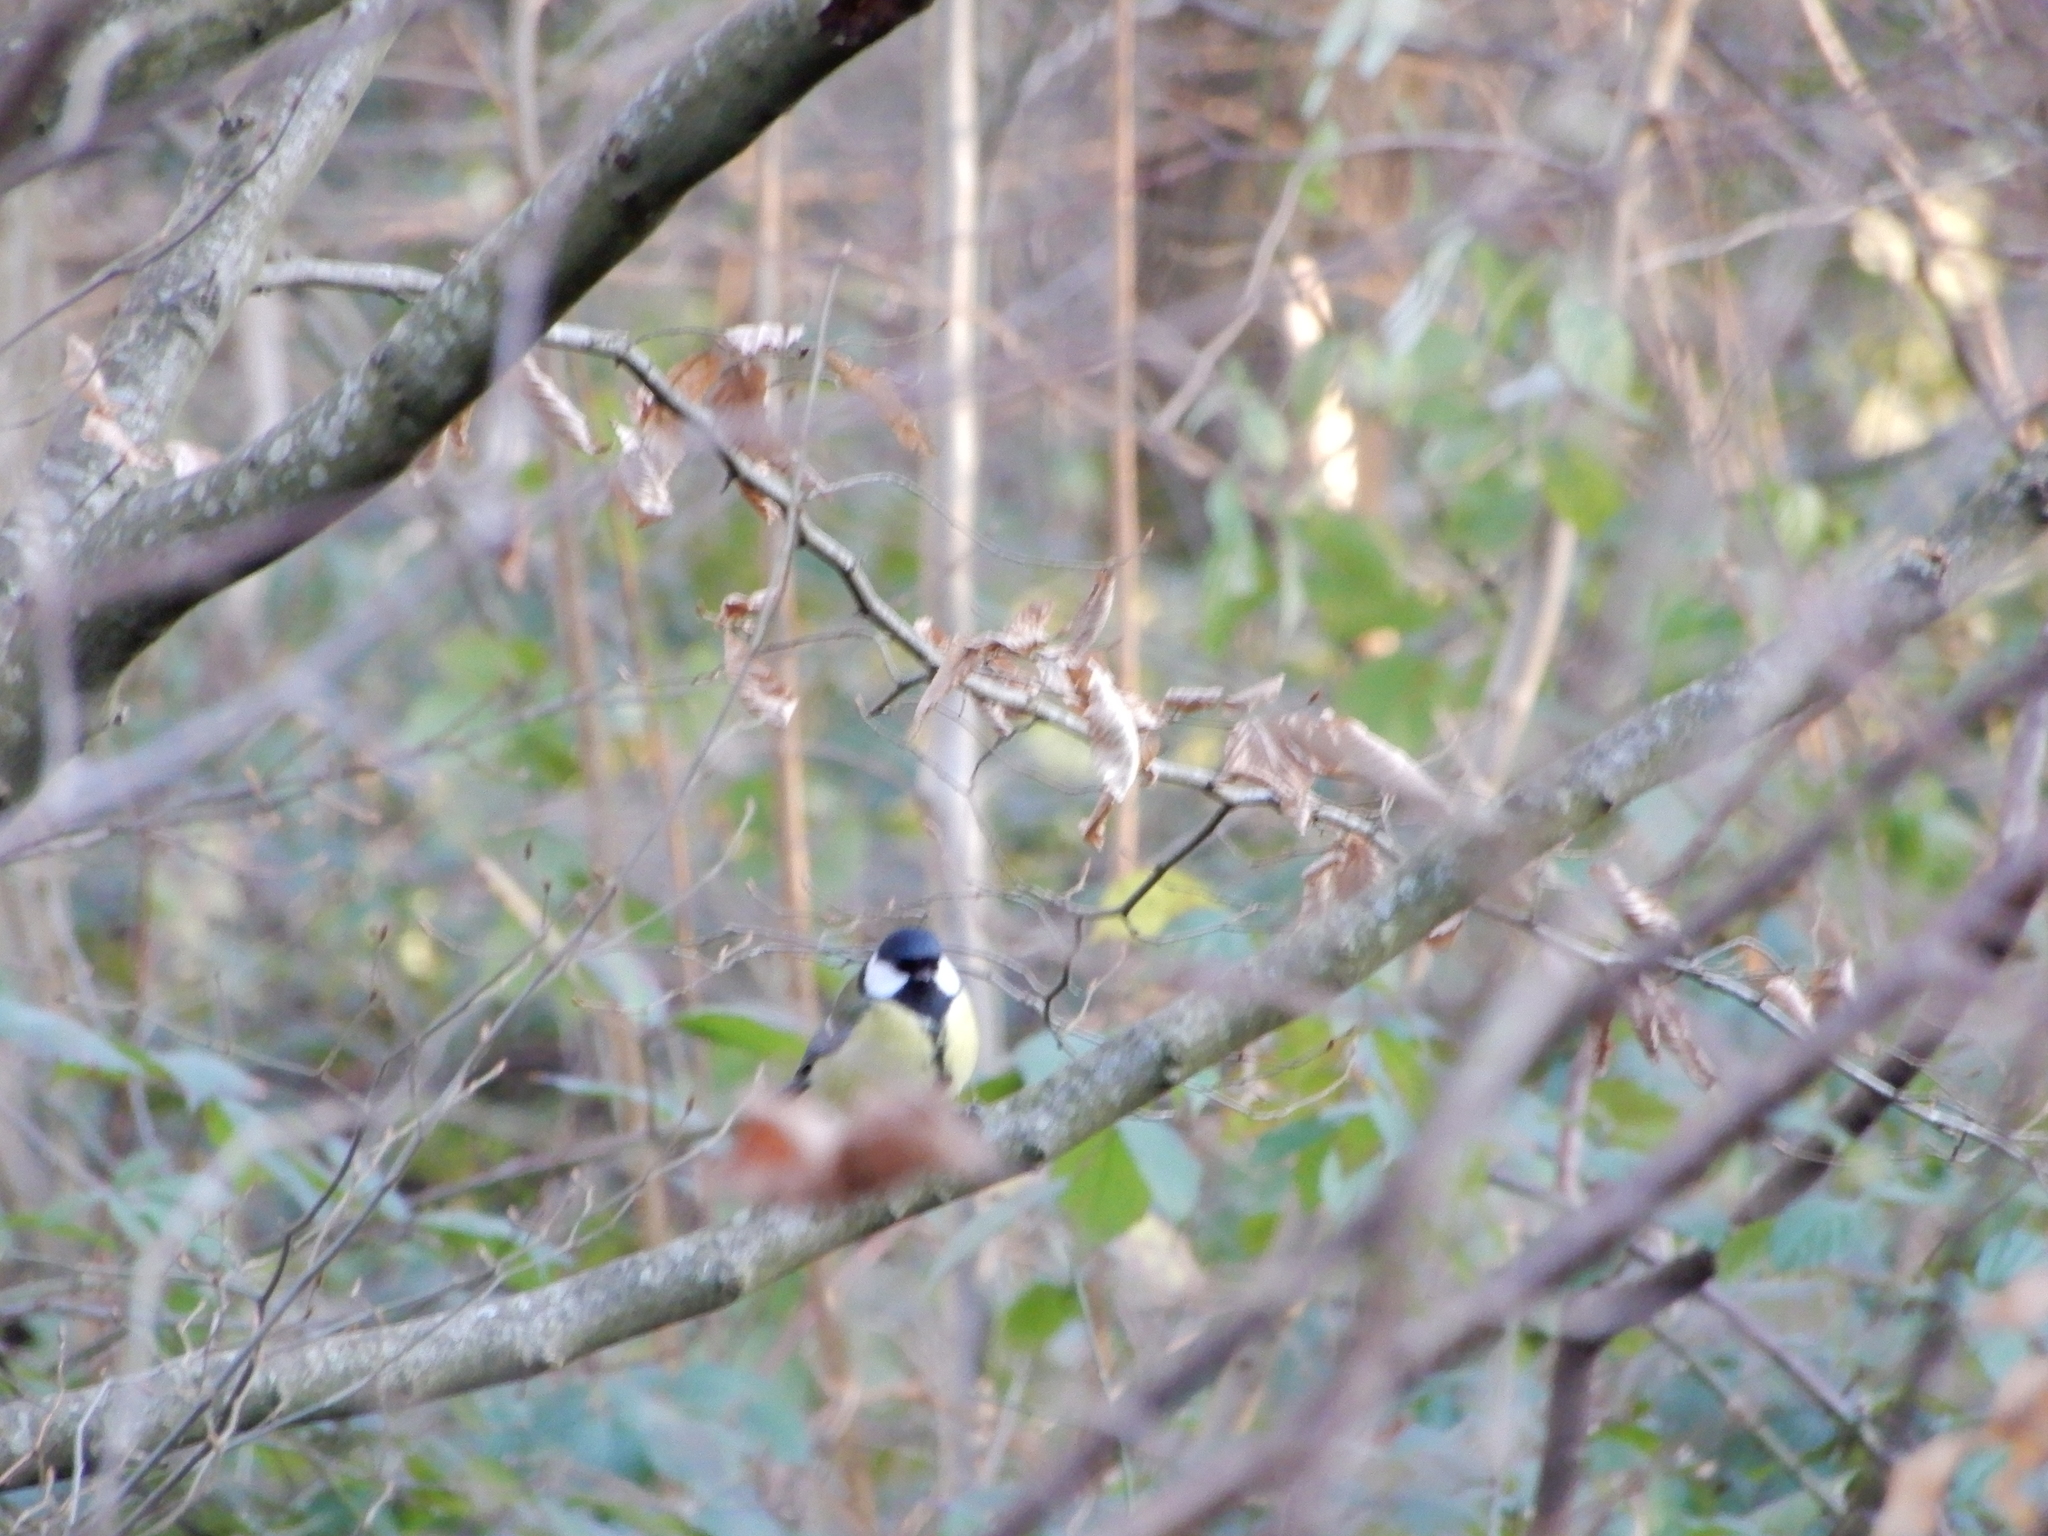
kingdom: Animalia
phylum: Chordata
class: Aves
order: Passeriformes
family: Paridae
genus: Parus
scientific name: Parus major
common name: Great tit
